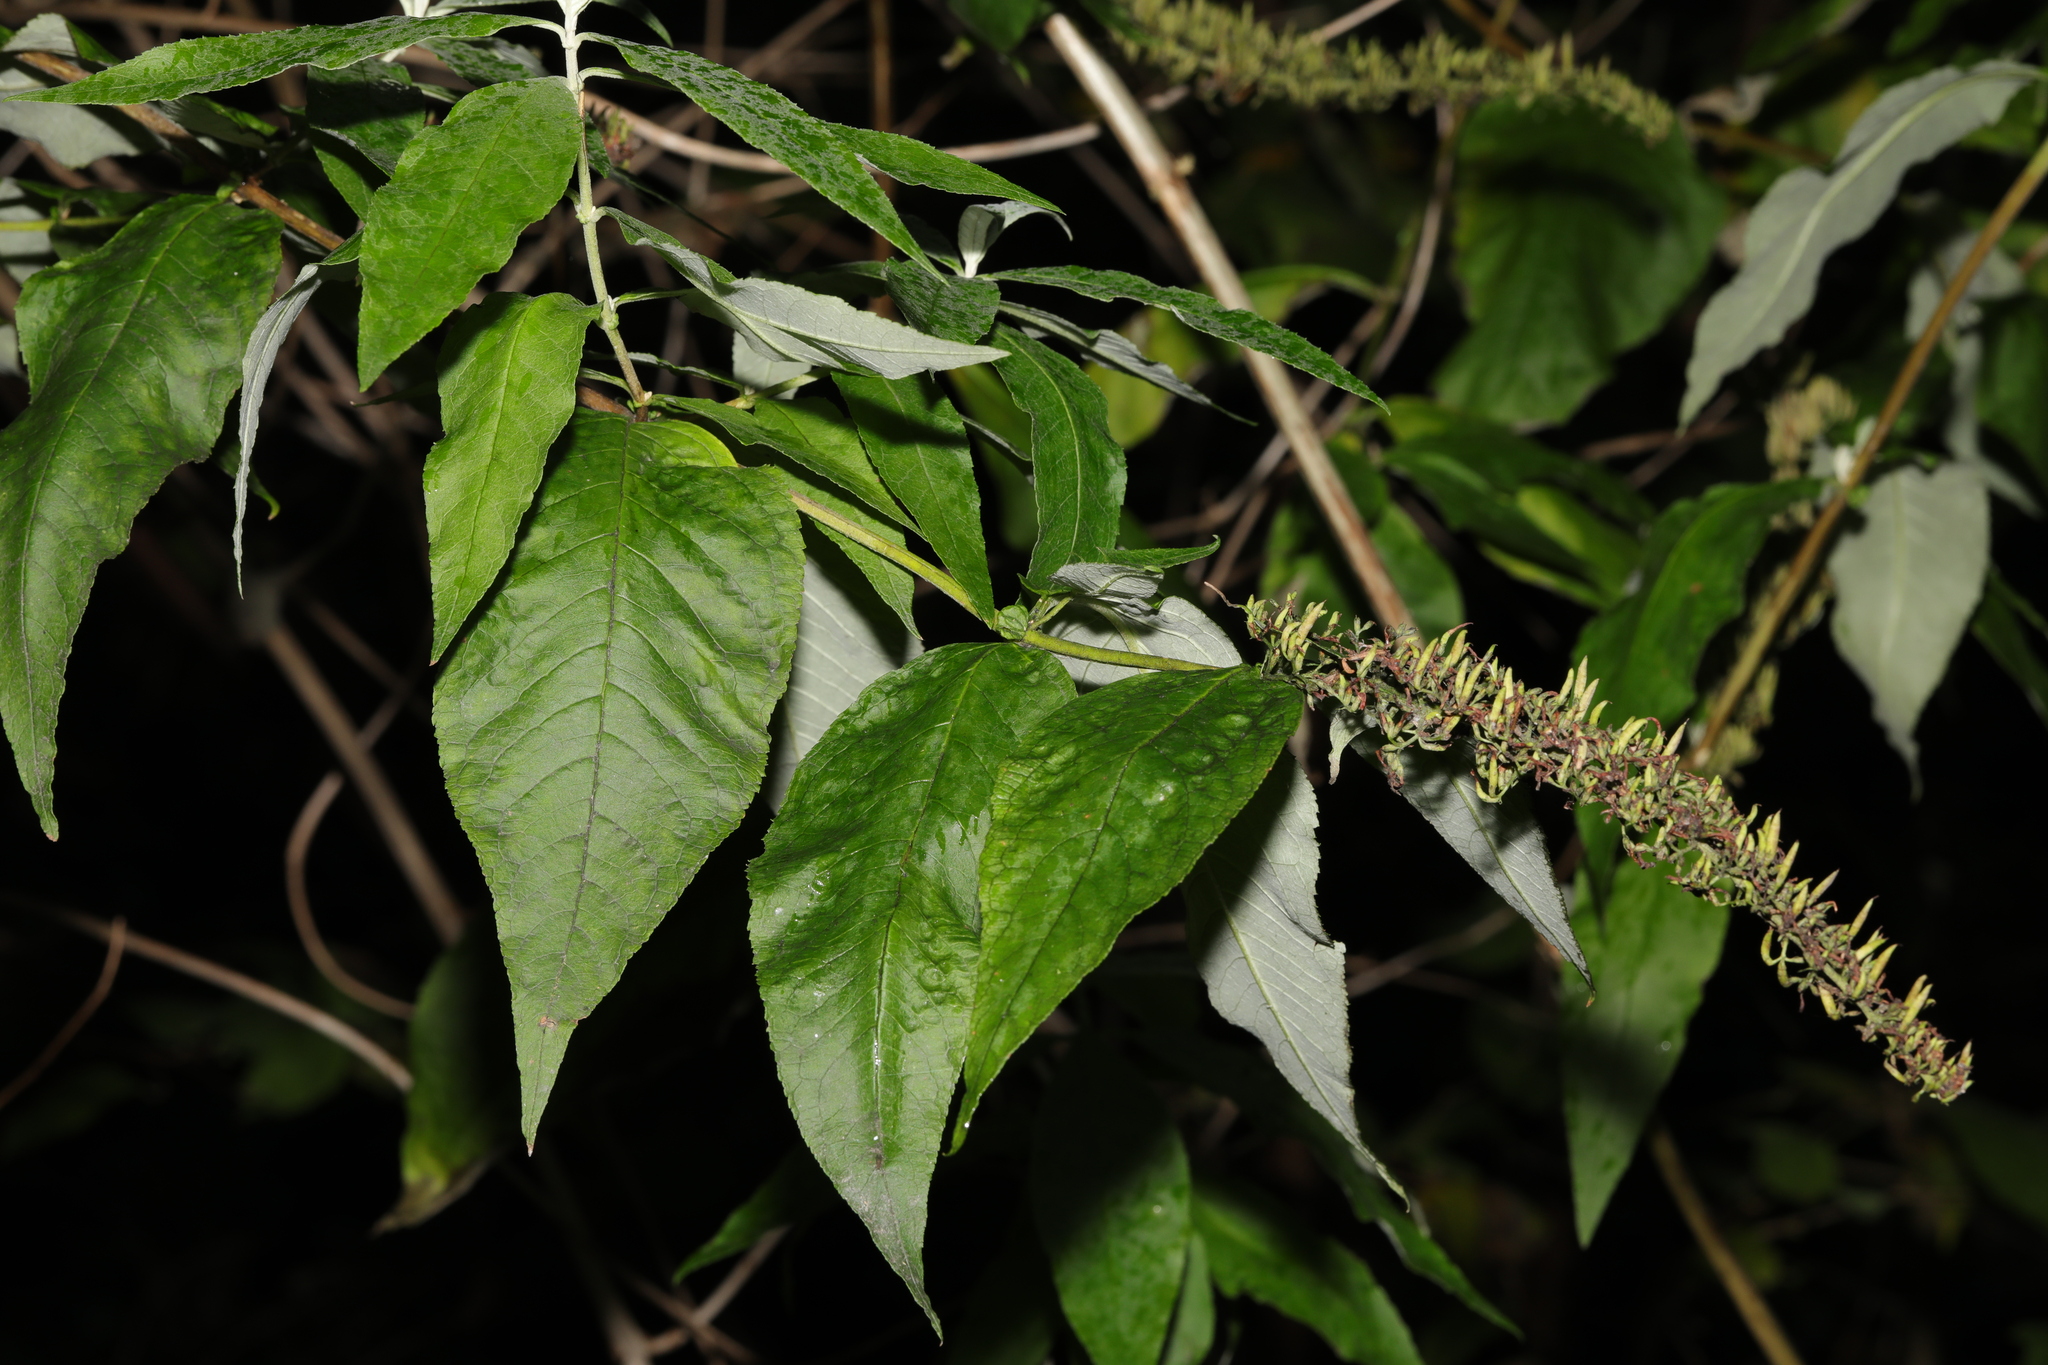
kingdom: Plantae
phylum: Tracheophyta
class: Magnoliopsida
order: Lamiales
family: Scrophulariaceae
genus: Buddleja
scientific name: Buddleja davidii
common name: Butterfly-bush
